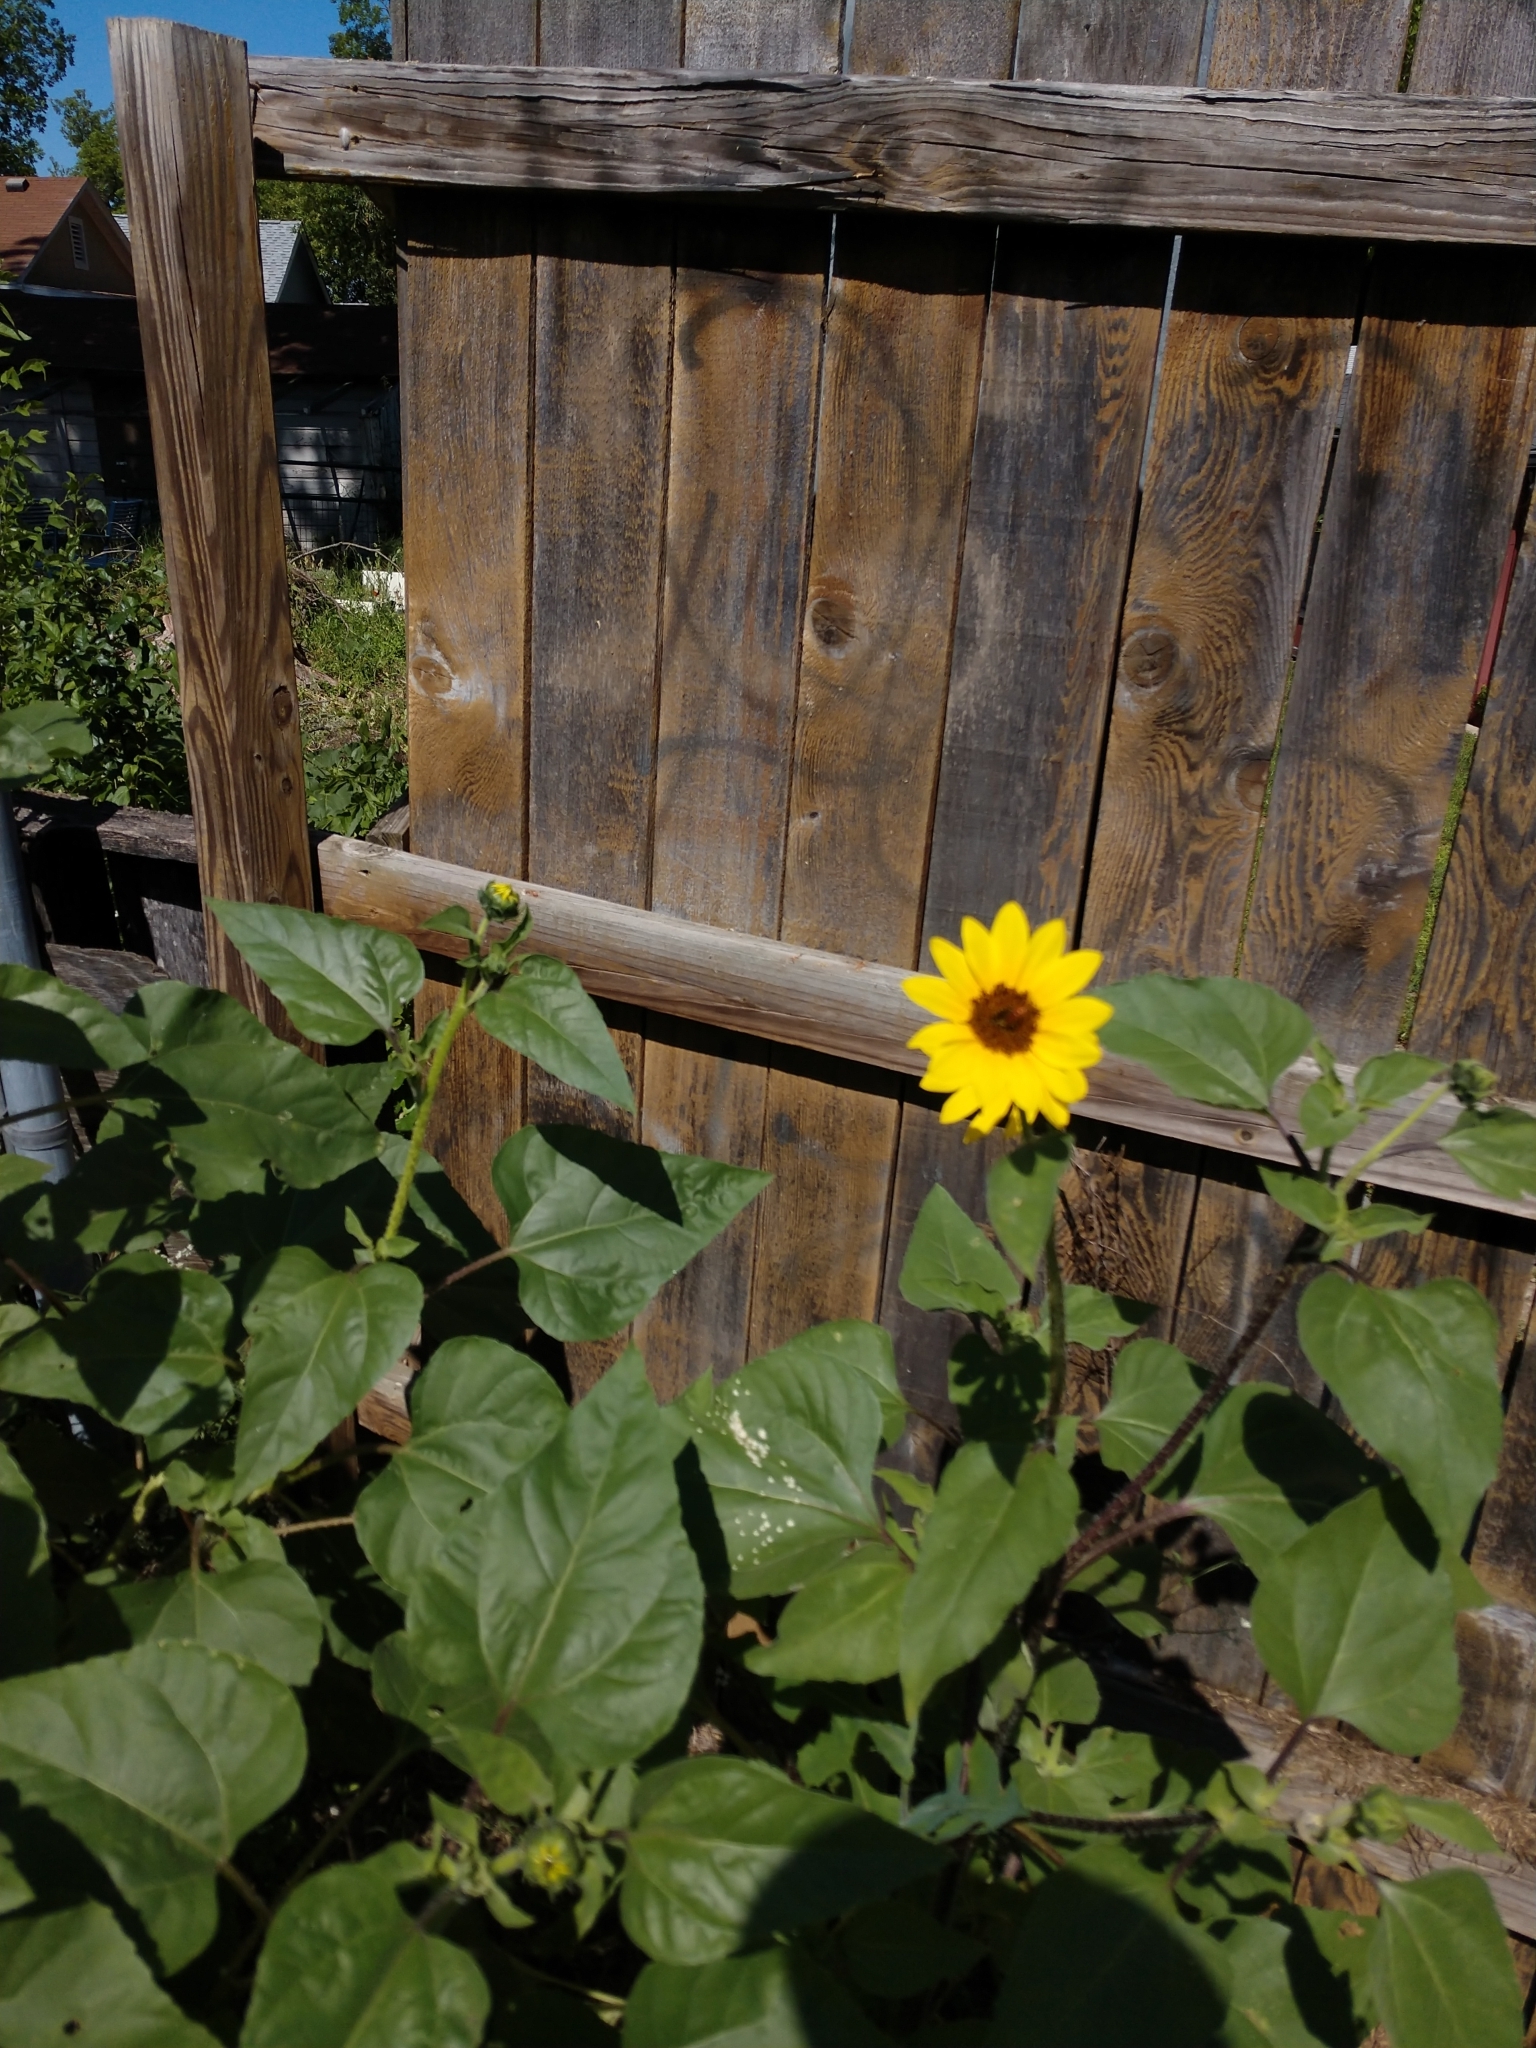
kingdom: Plantae
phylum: Tracheophyta
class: Magnoliopsida
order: Asterales
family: Asteraceae
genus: Helianthus
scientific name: Helianthus annuus
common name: Sunflower
